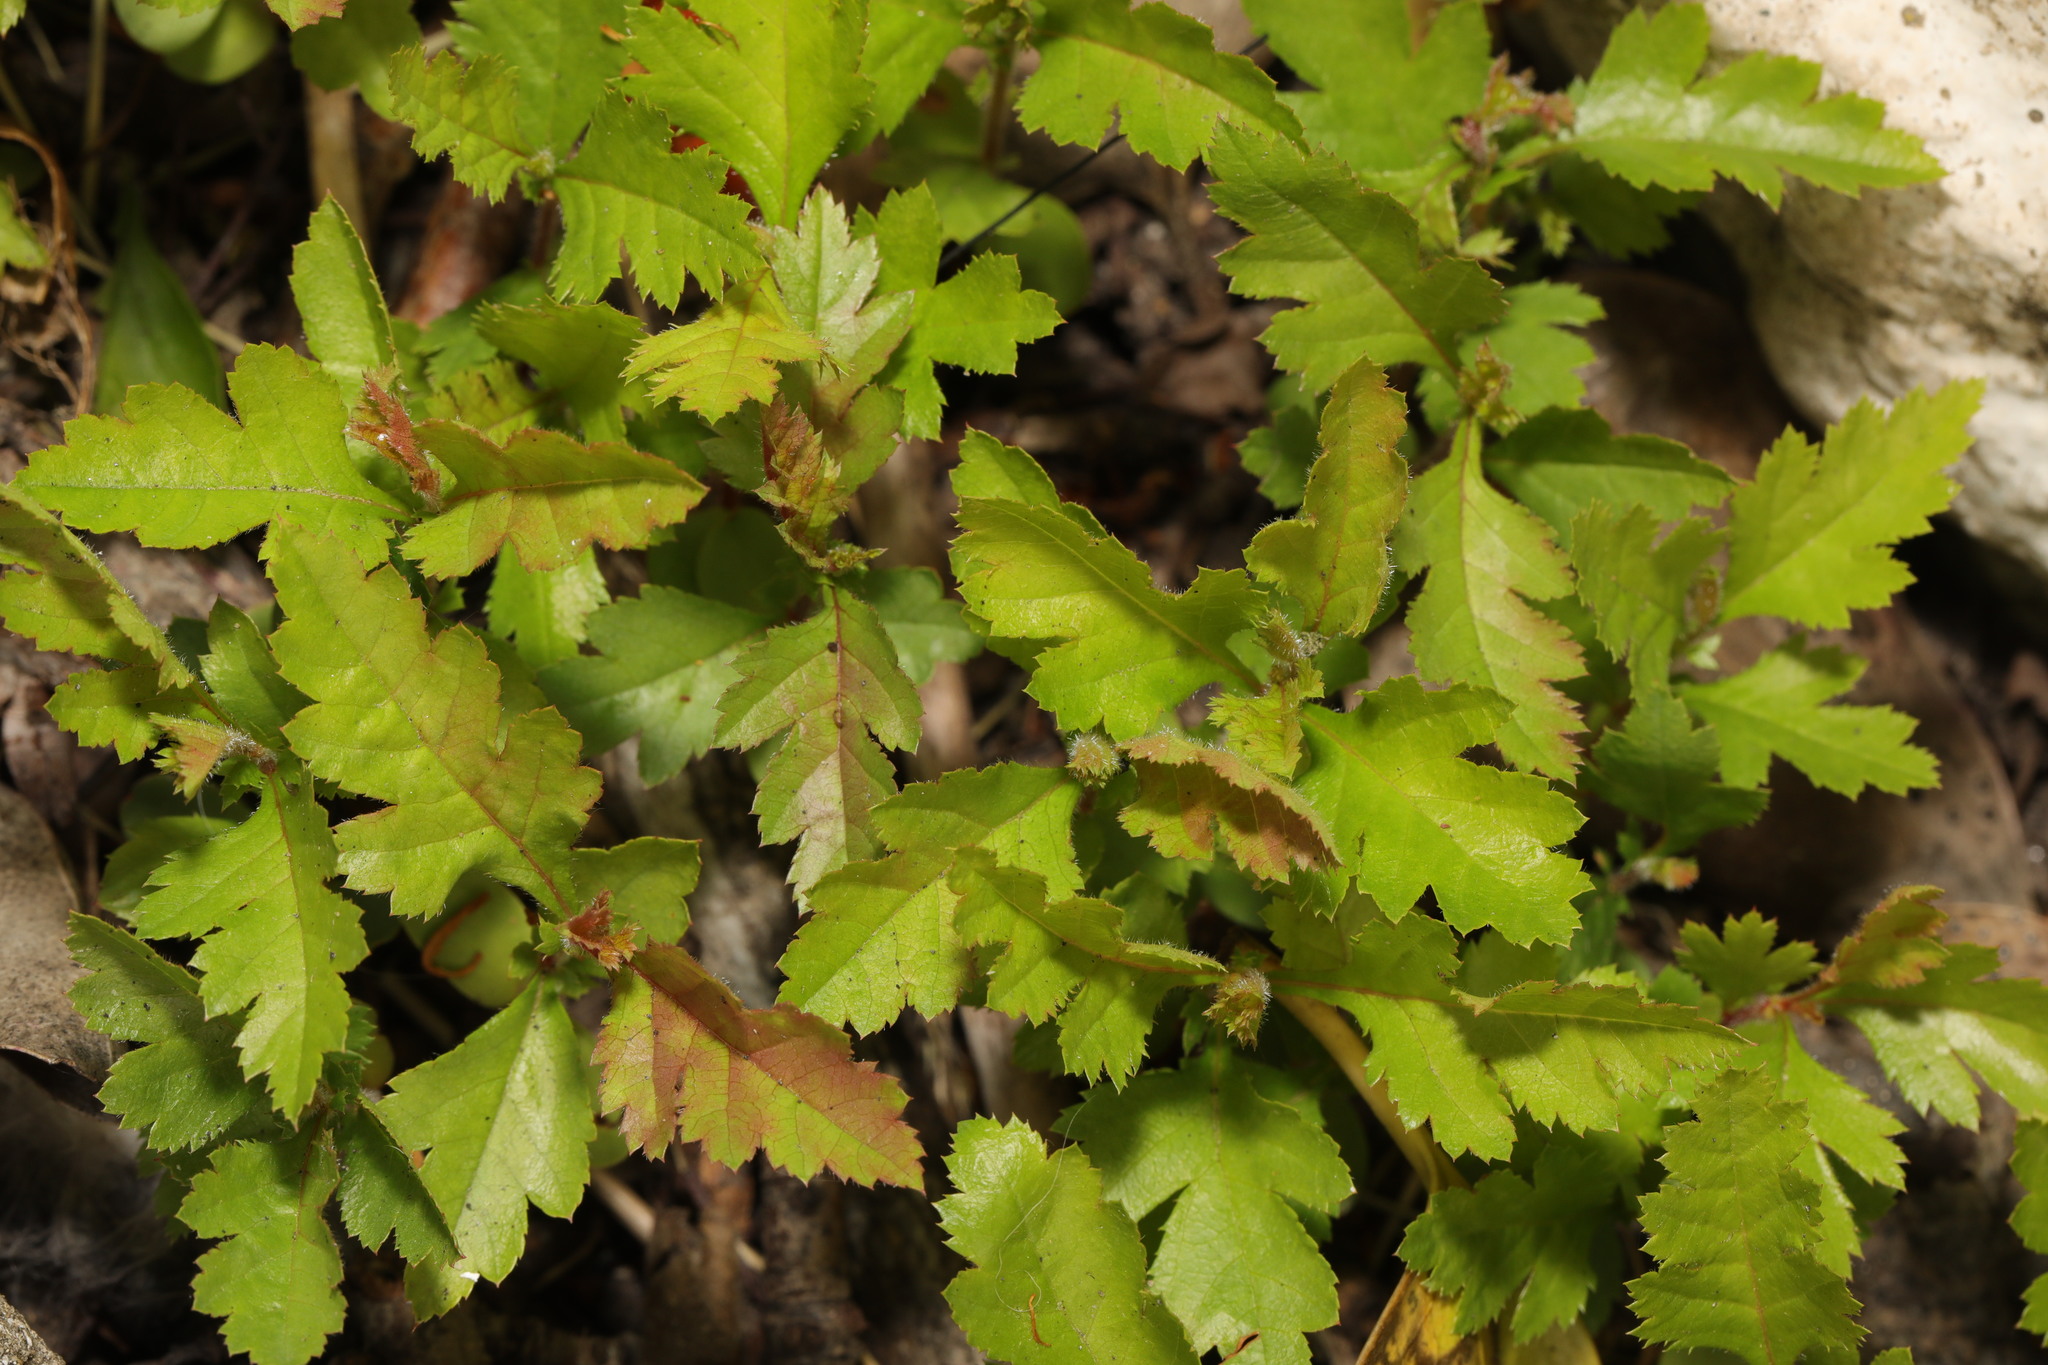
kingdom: Plantae
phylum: Tracheophyta
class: Magnoliopsida
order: Rosales
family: Rosaceae
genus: Crataegus
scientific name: Crataegus monogyna
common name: Hawthorn
